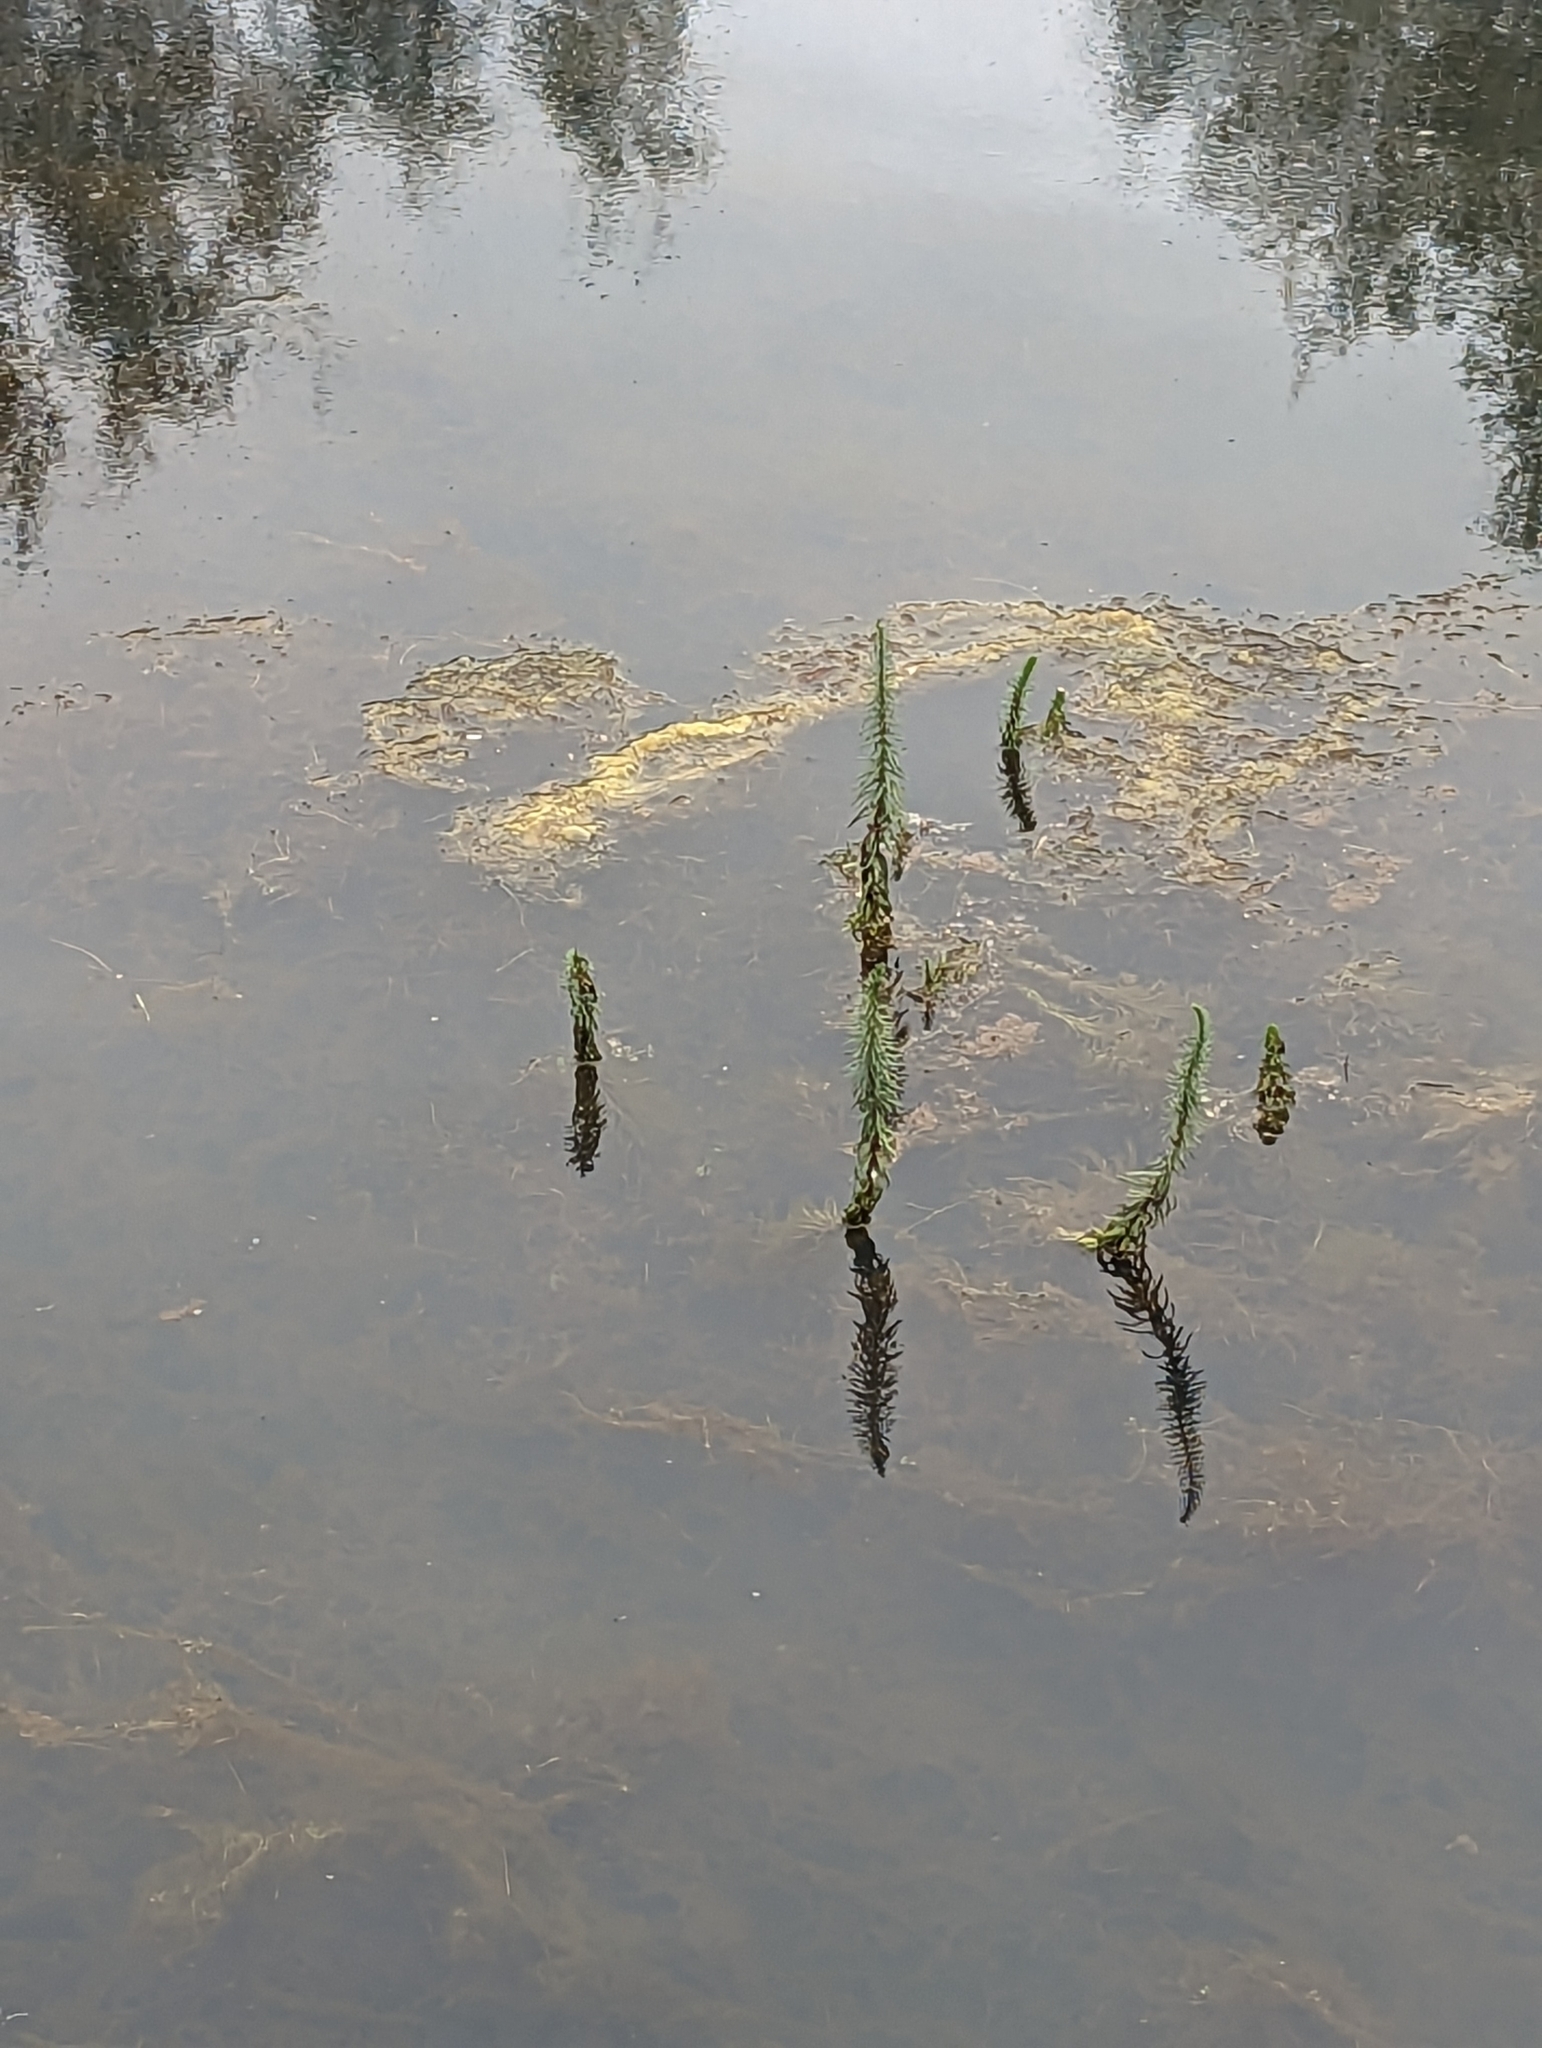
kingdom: Plantae
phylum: Tracheophyta
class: Magnoliopsida
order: Lamiales
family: Plantaginaceae
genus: Hippuris
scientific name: Hippuris vulgaris
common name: Mare's-tail
